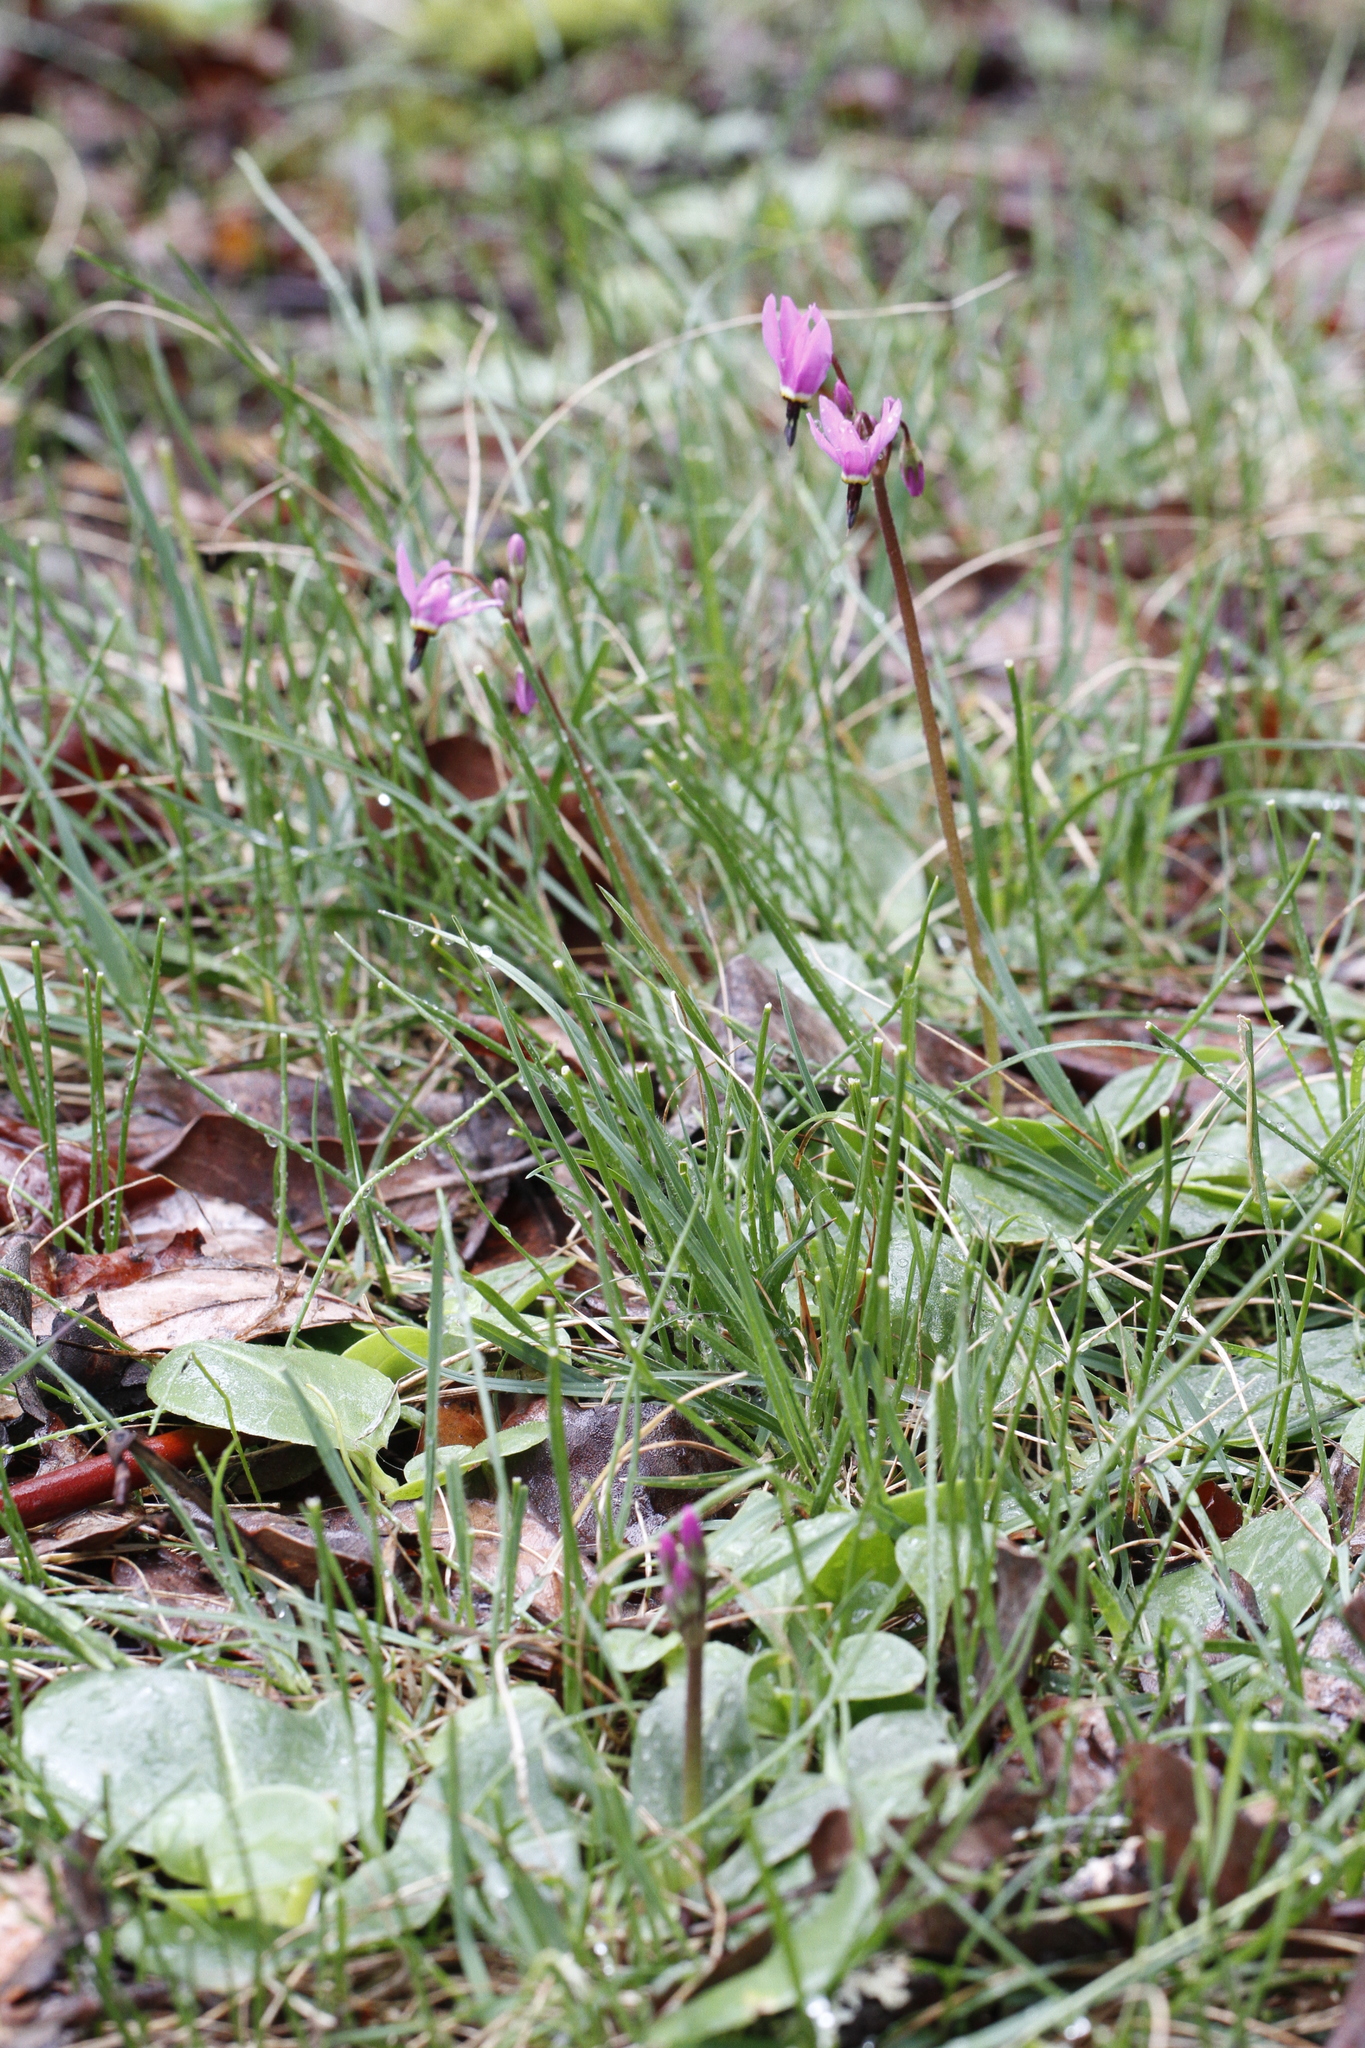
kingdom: Plantae
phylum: Tracheophyta
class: Magnoliopsida
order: Ericales
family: Primulaceae
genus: Dodecatheon
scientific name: Dodecatheon hendersonii
